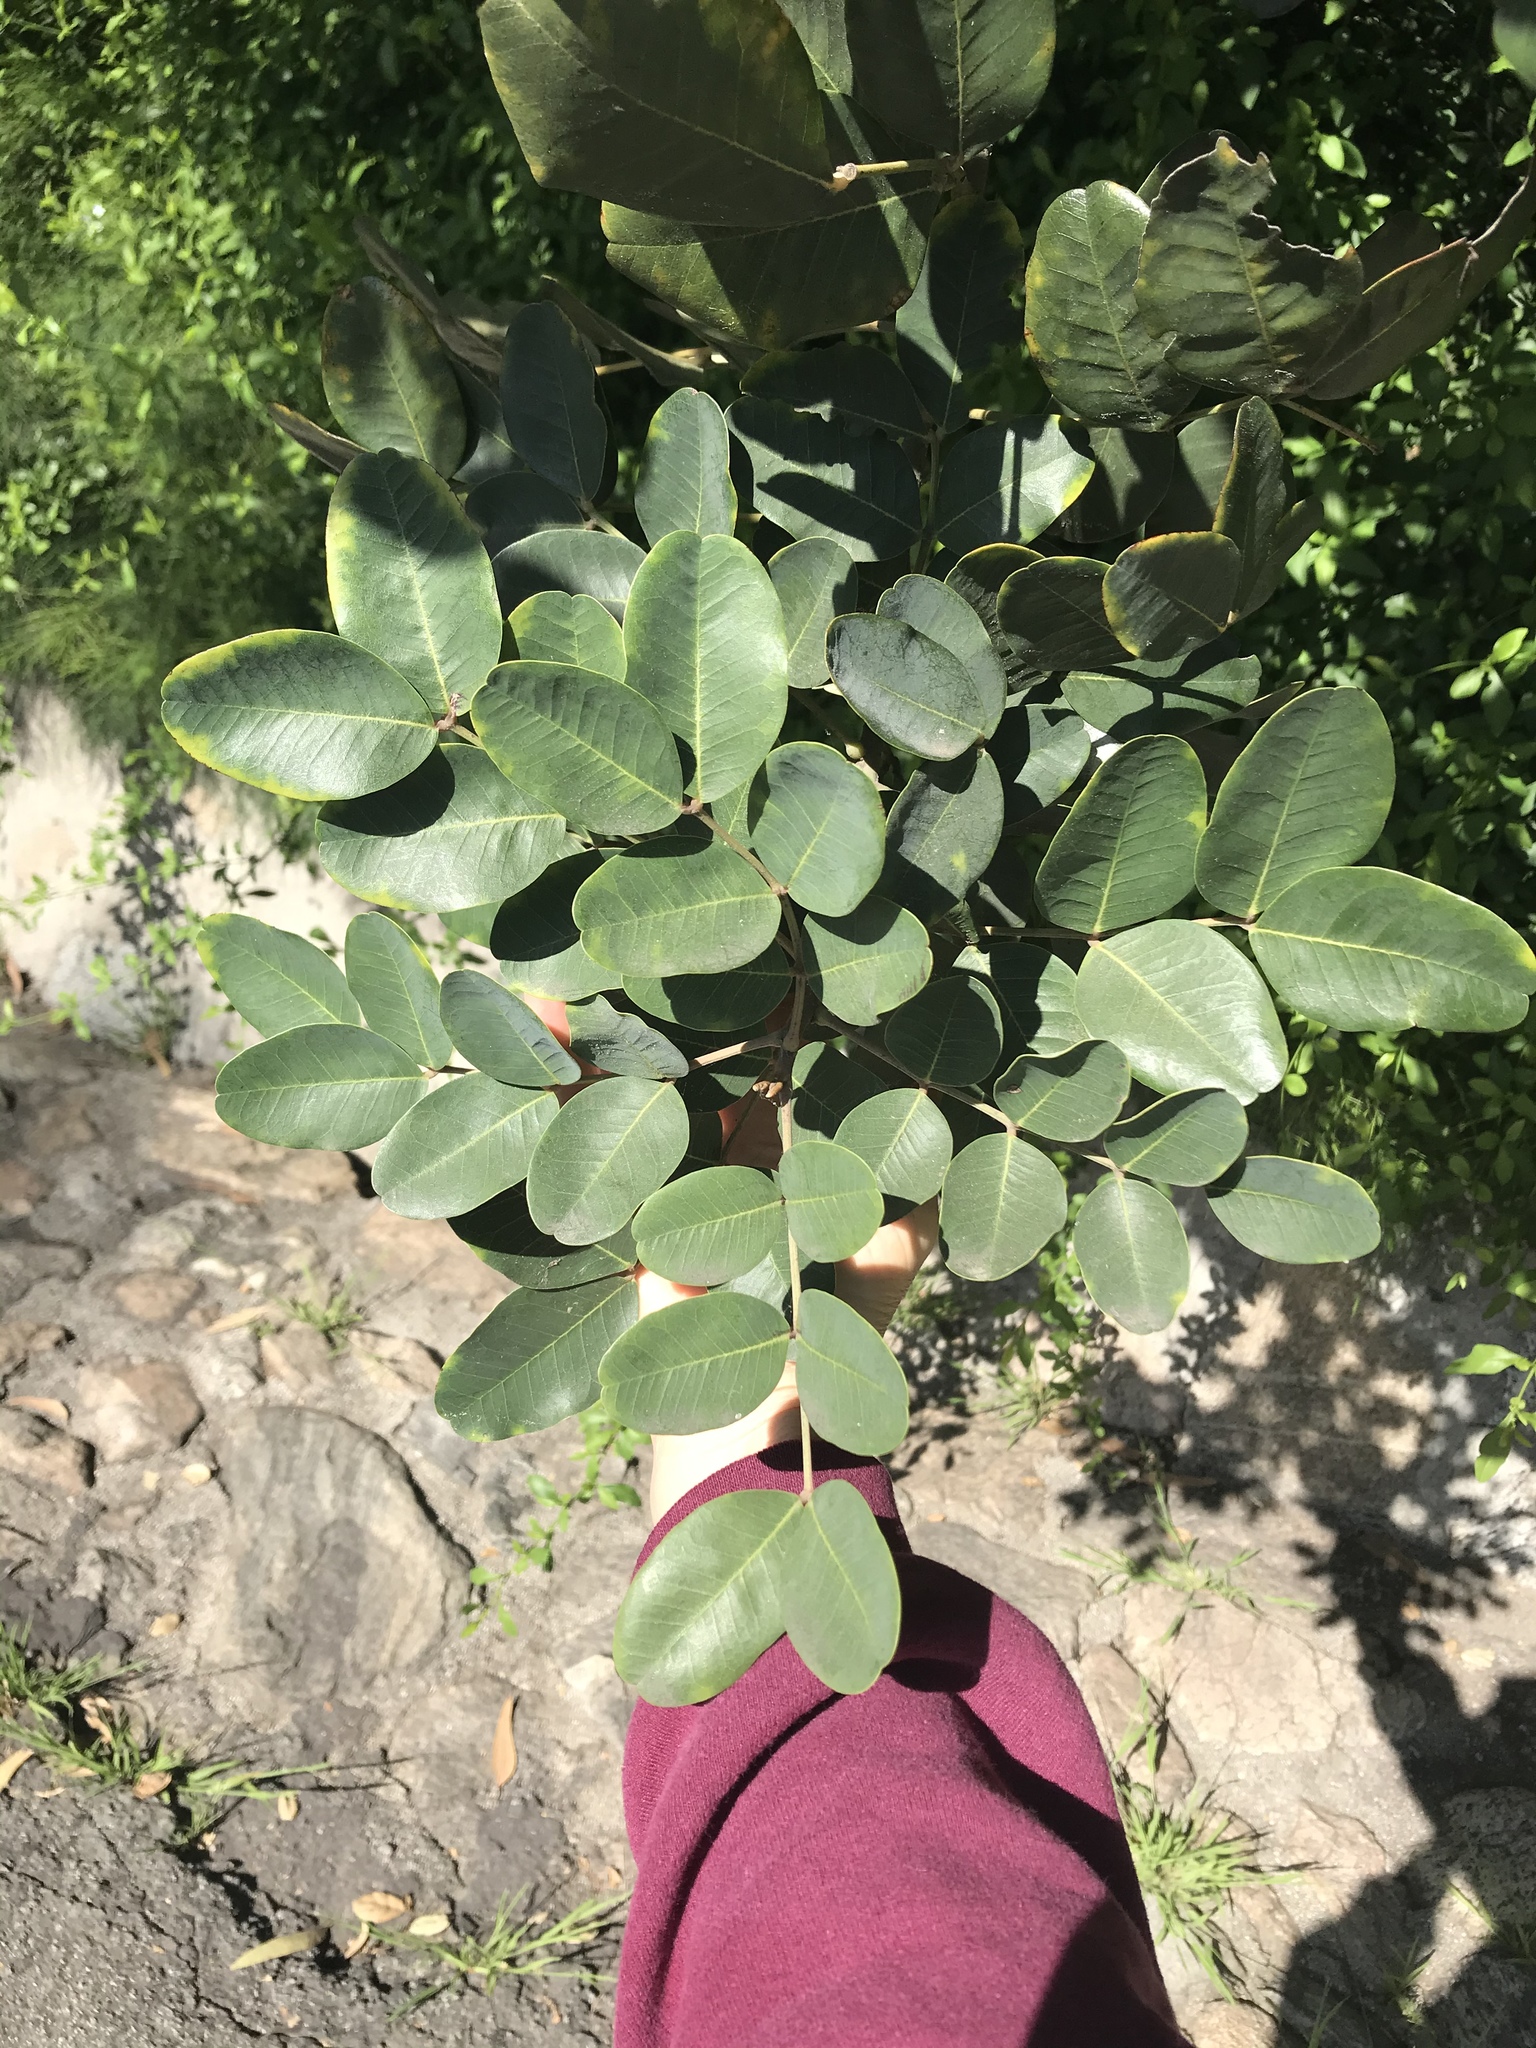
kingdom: Plantae
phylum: Tracheophyta
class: Magnoliopsida
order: Fabales
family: Fabaceae
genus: Ceratonia
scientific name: Ceratonia siliqua
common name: Carob
